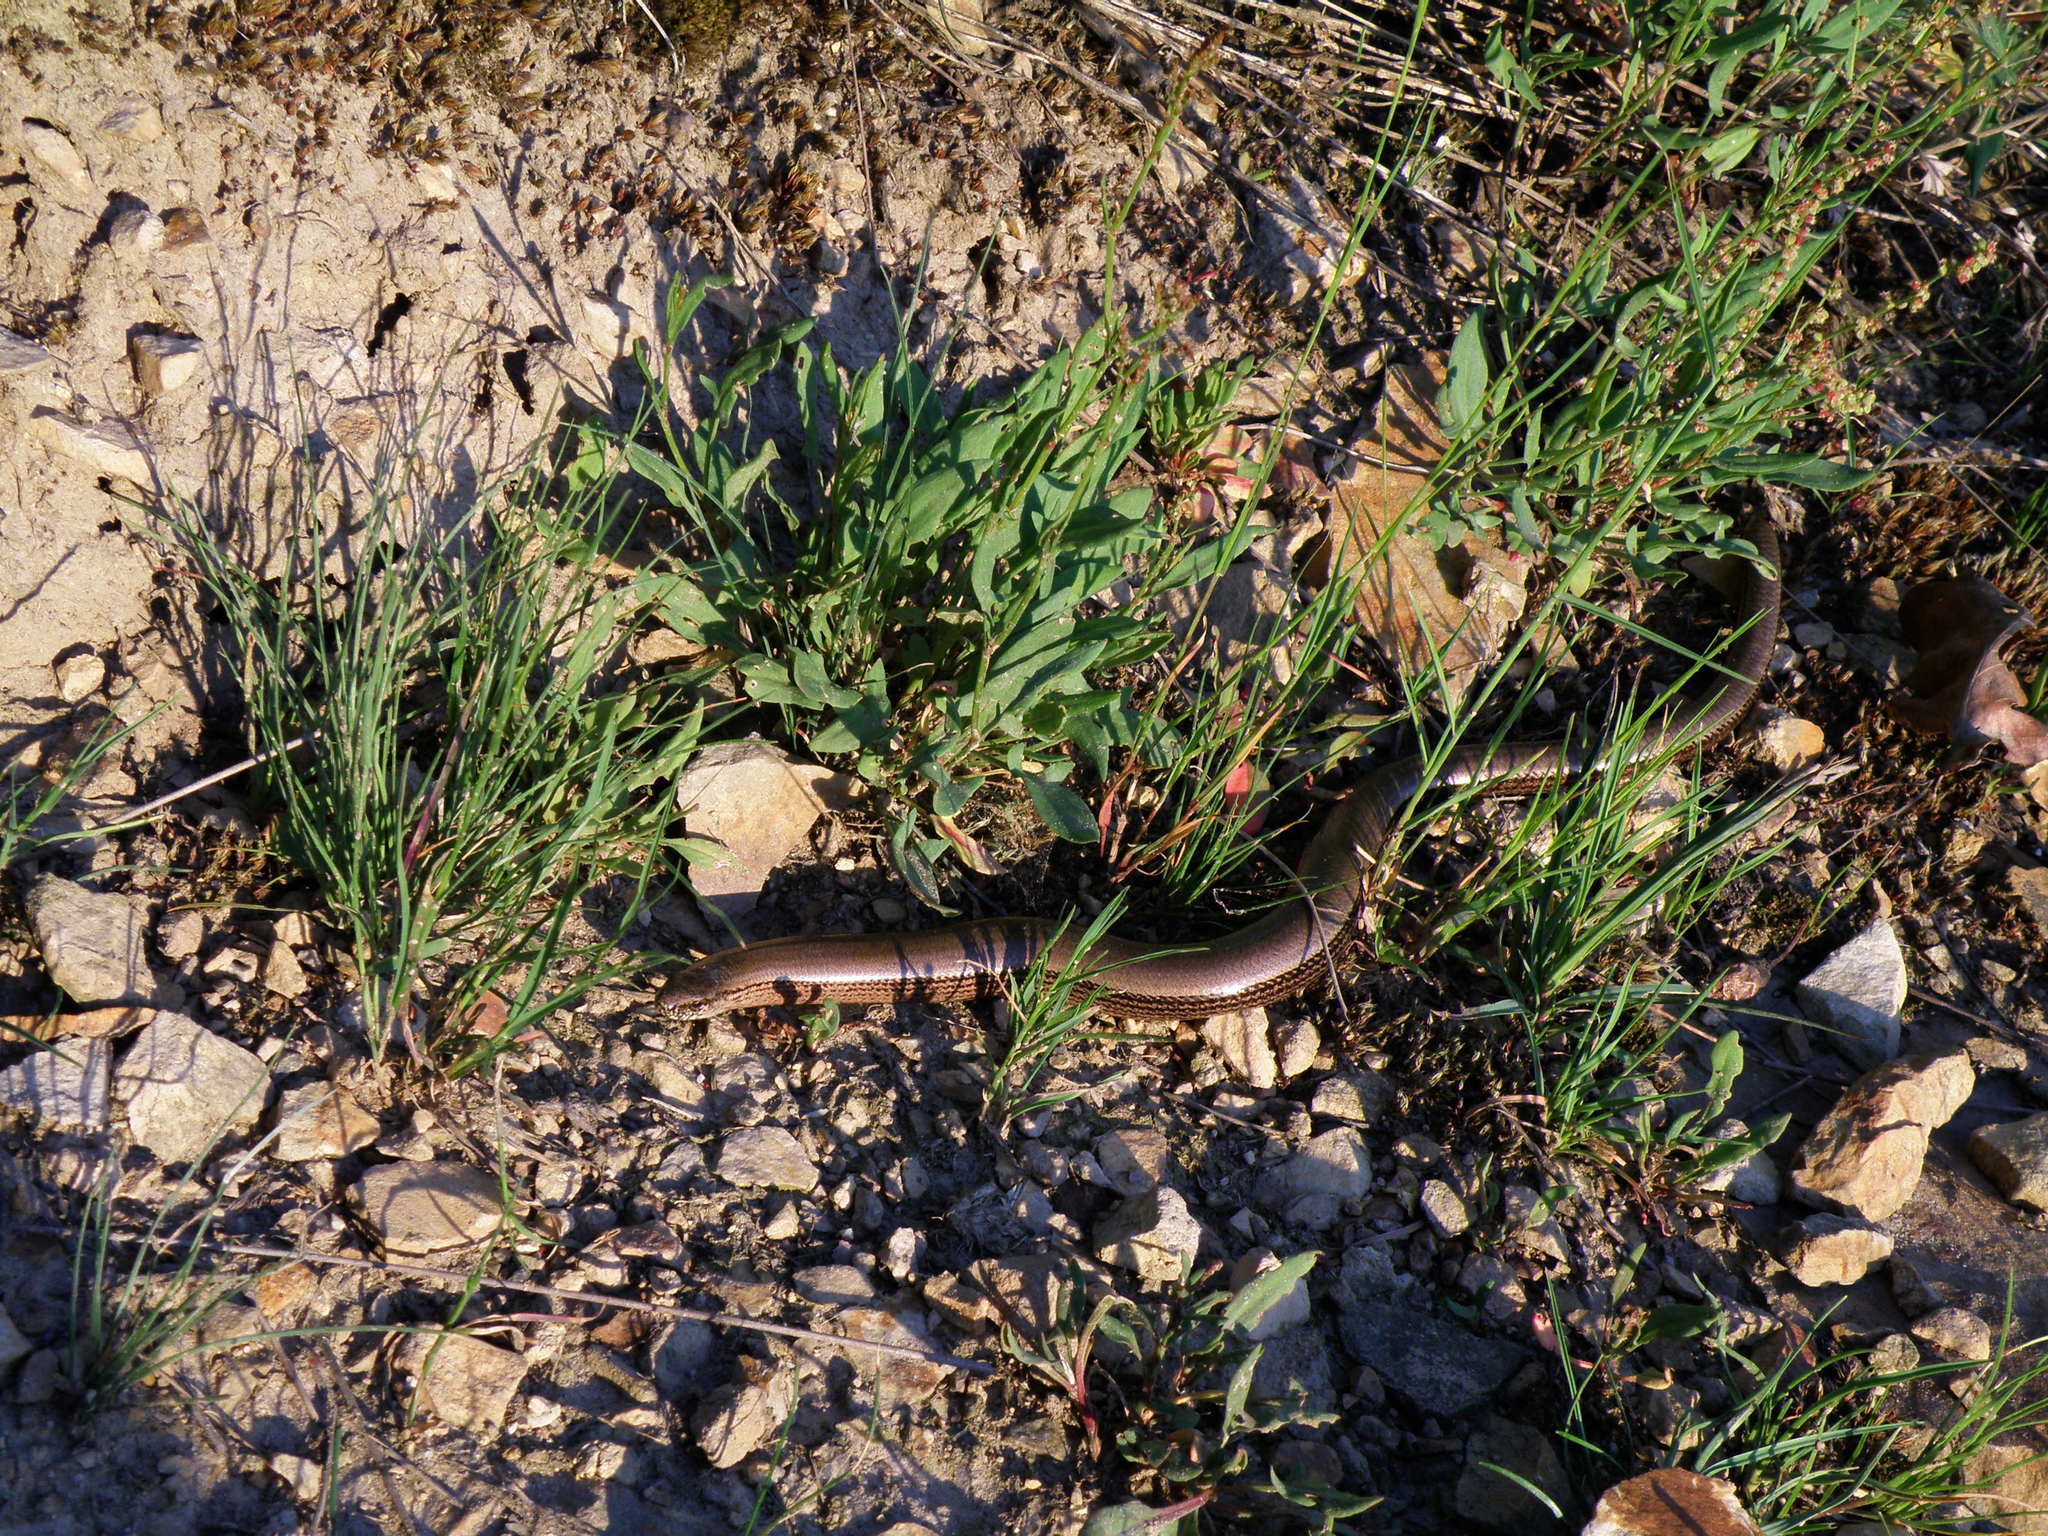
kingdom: Animalia
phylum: Chordata
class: Squamata
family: Anguidae
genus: Anguis
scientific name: Anguis fragilis
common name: Slow worm
